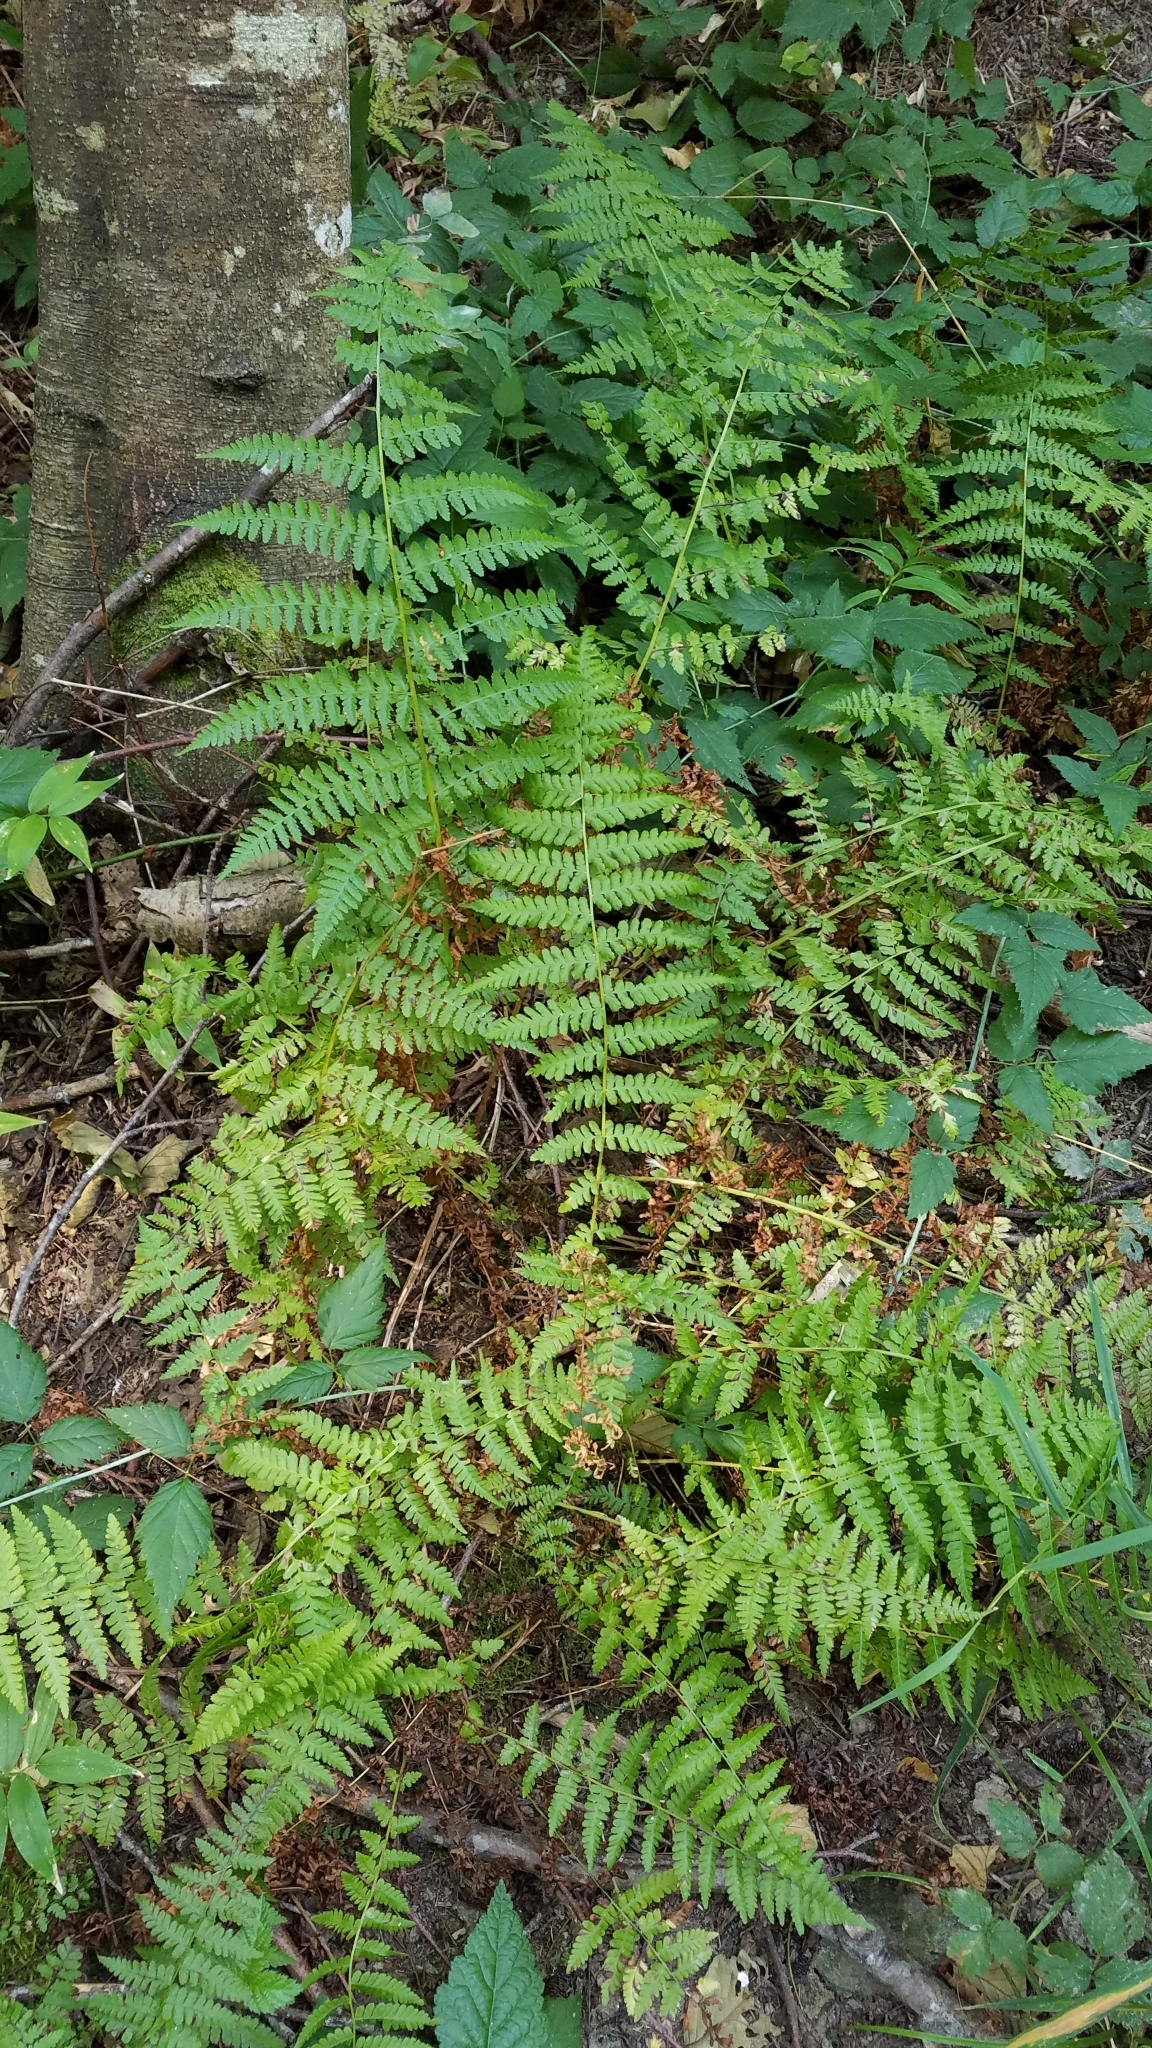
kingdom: Plantae
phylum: Tracheophyta
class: Polypodiopsida
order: Polypodiales
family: Athyriaceae
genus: Athyrium
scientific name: Athyrium filix-femina
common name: Lady fern
